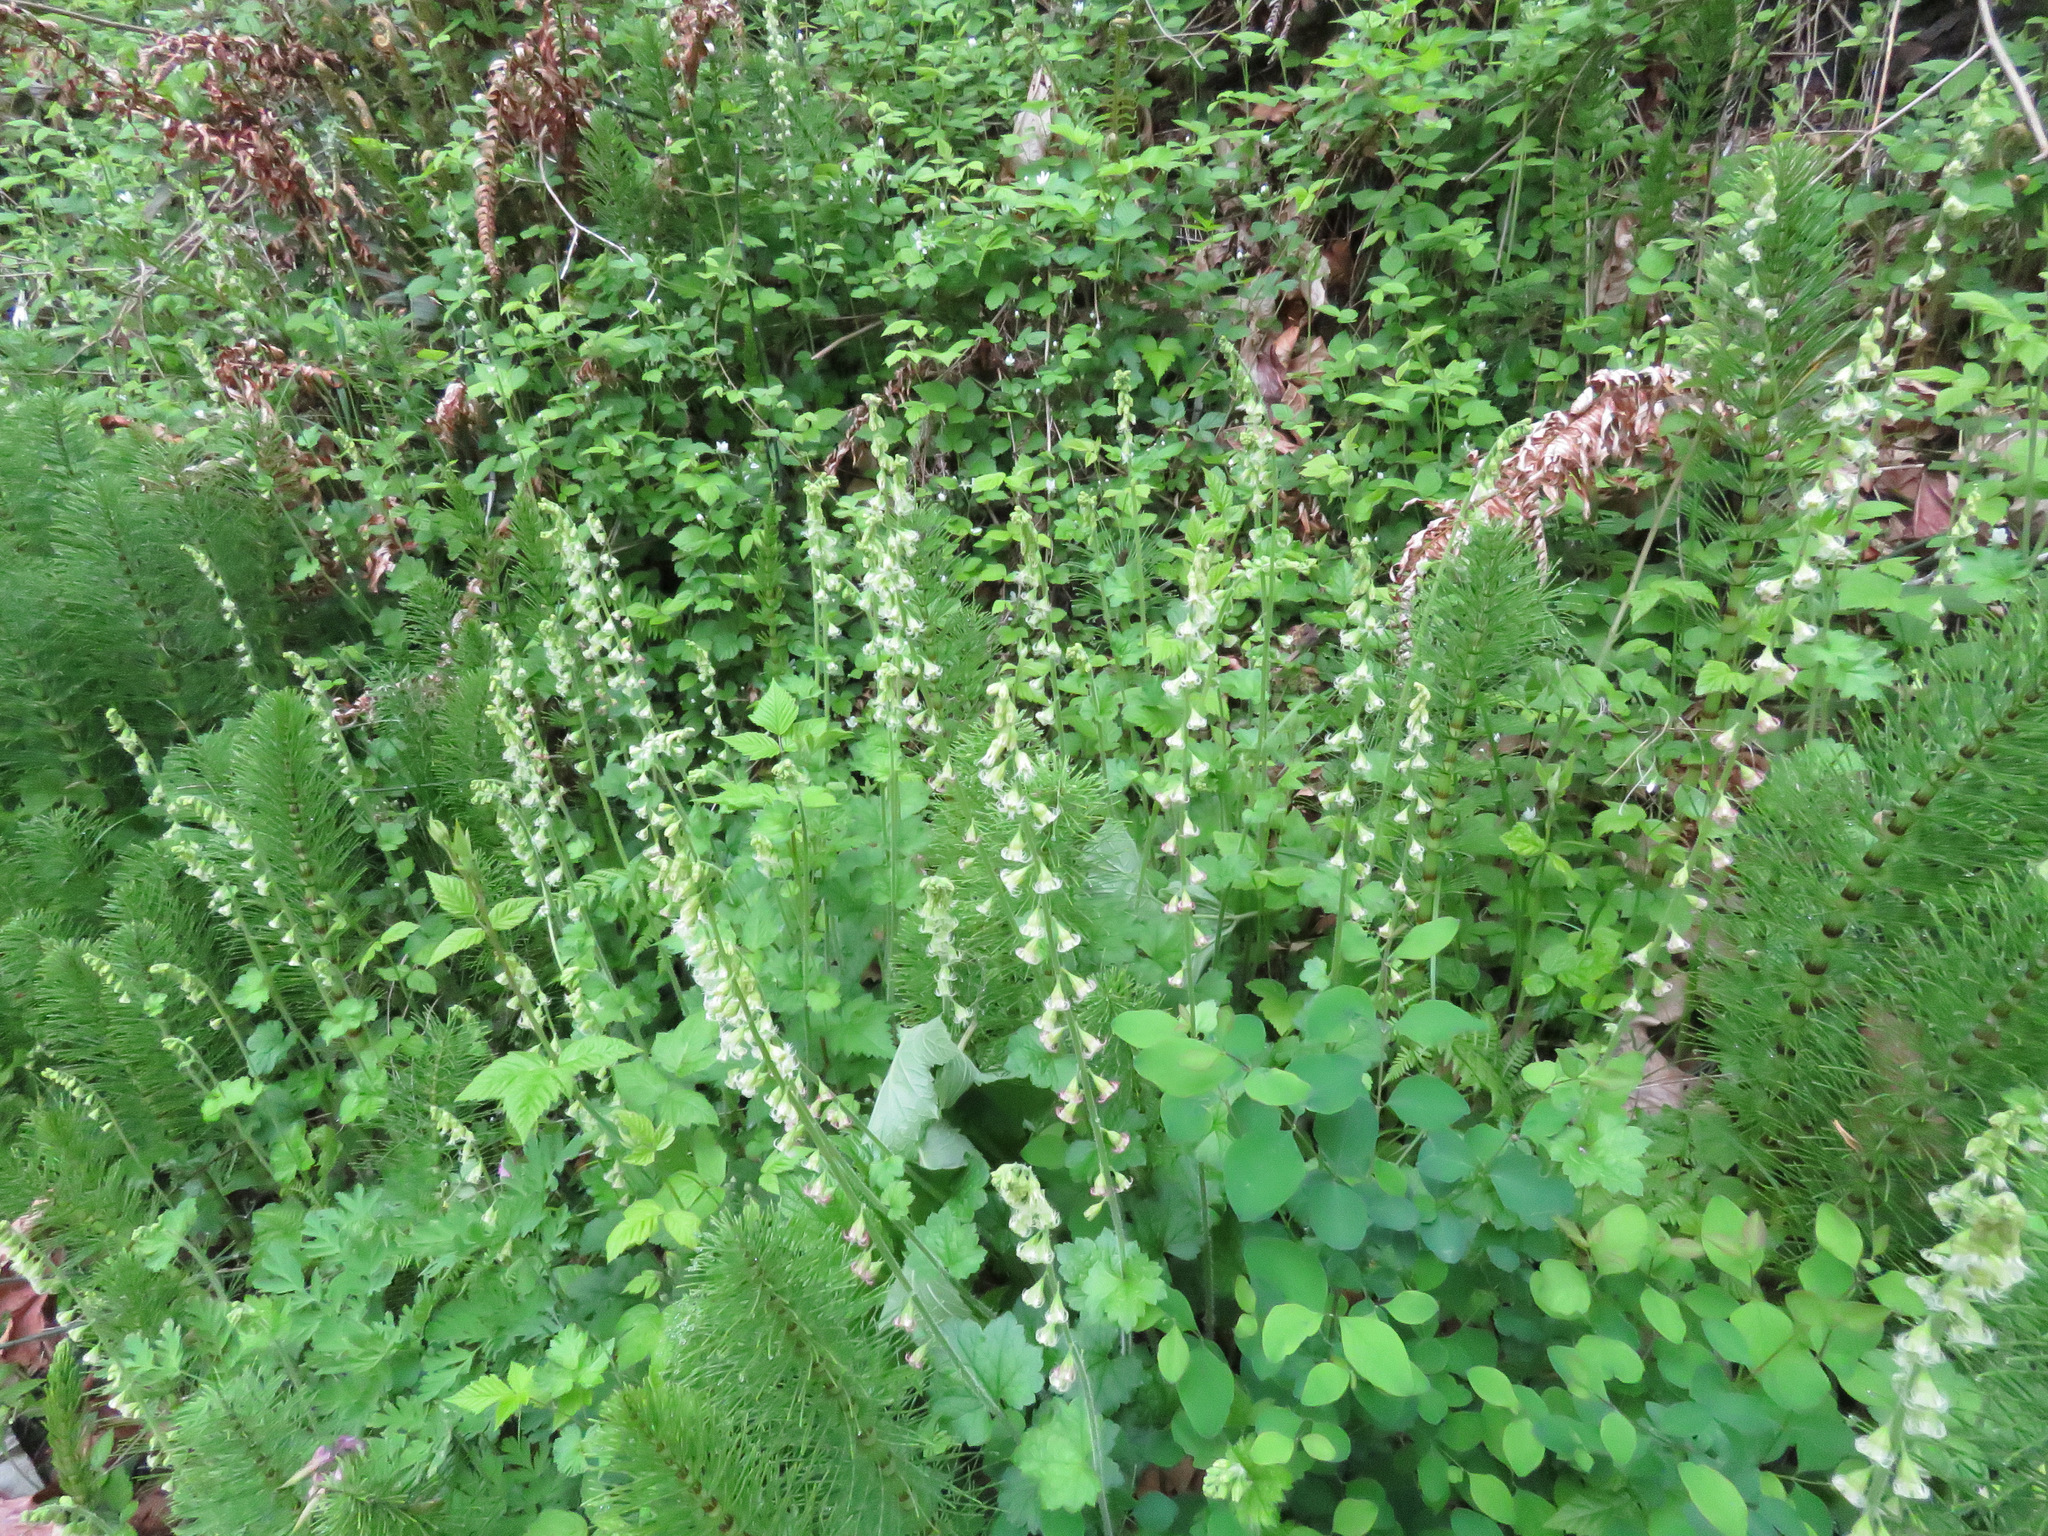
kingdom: Plantae
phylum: Tracheophyta
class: Magnoliopsida
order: Saxifragales
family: Saxifragaceae
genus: Tellima
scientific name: Tellima grandiflora
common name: Fringecups
